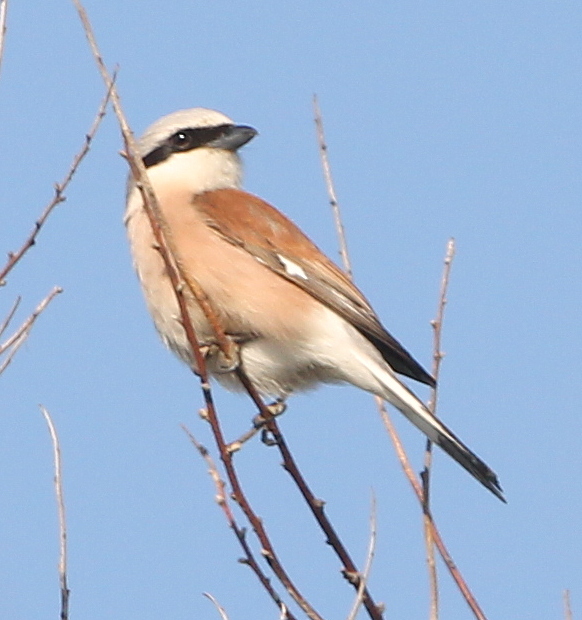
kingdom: Animalia
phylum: Chordata
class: Aves
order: Passeriformes
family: Laniidae
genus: Lanius
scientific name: Lanius collurio
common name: Red-backed shrike
